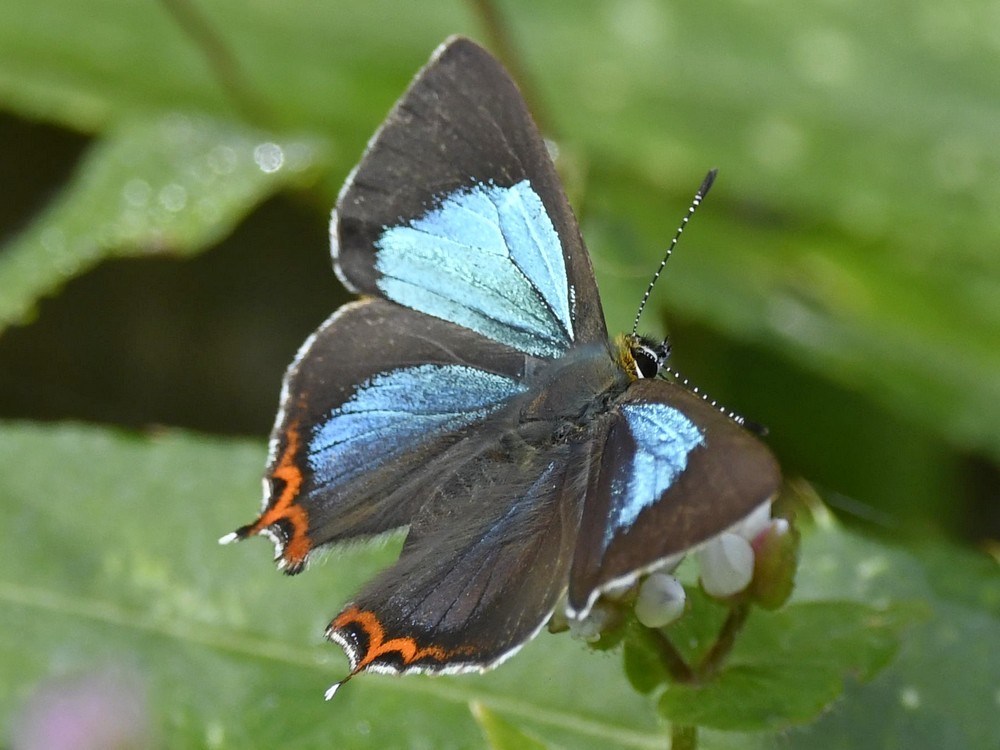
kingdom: Animalia
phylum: Arthropoda
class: Insecta
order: Lepidoptera
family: Lycaenidae
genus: Heliophorus
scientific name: Heliophorus
